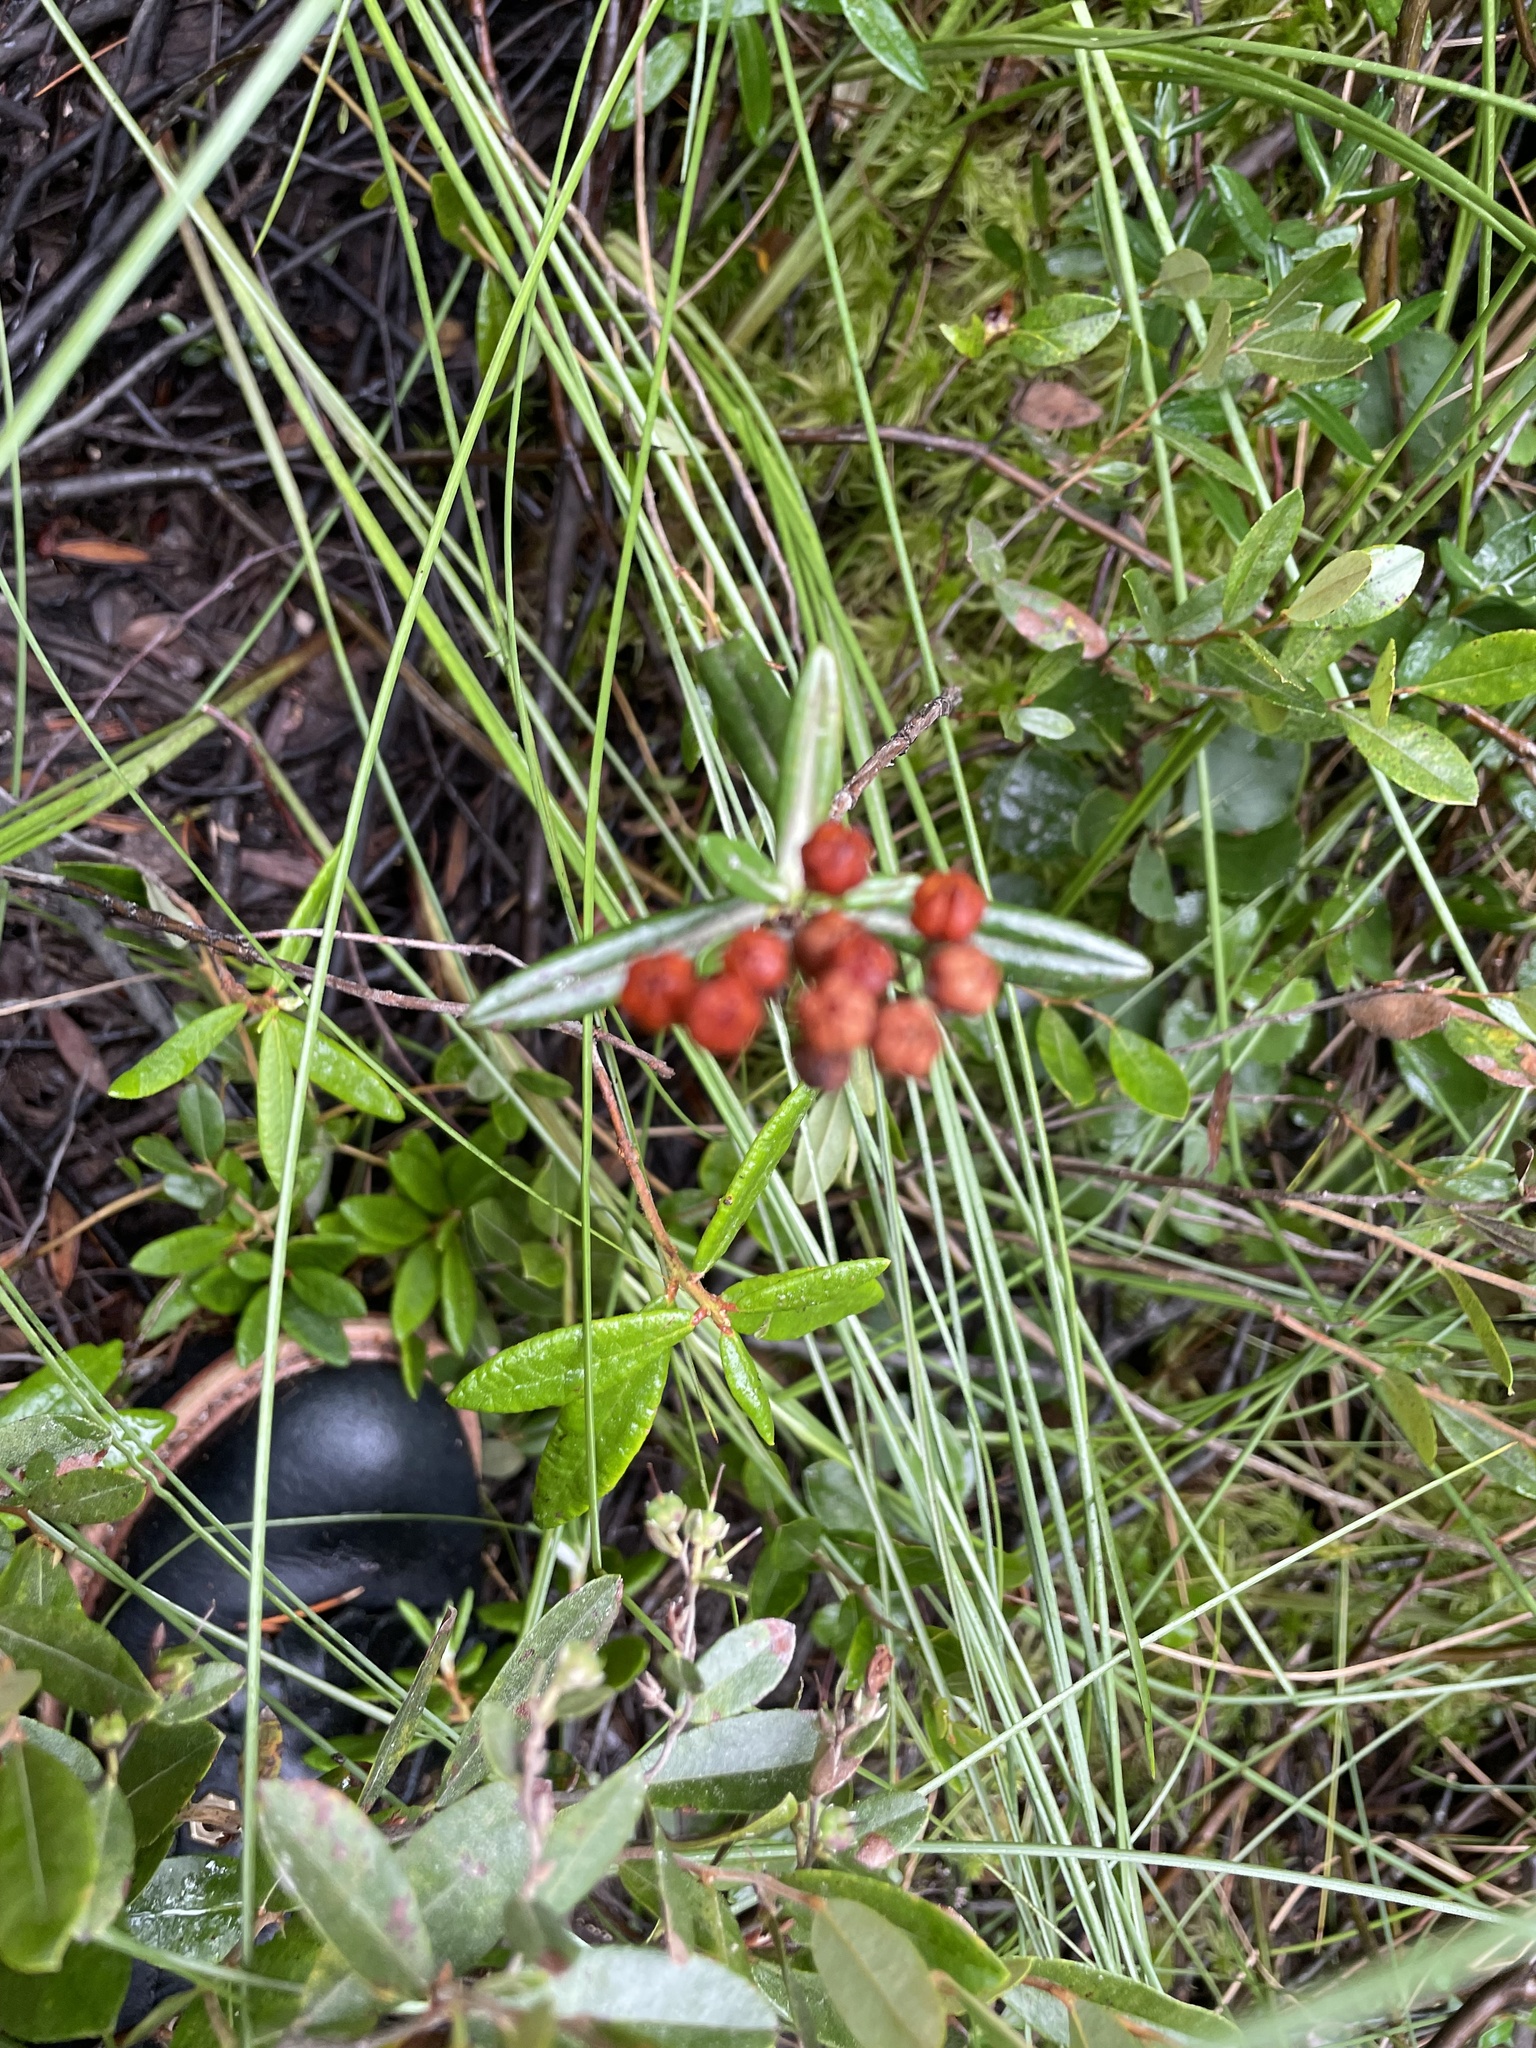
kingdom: Plantae
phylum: Tracheophyta
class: Magnoliopsida
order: Ericales
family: Ericaceae
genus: Andromeda
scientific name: Andromeda polifolia
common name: Bog-rosemary
